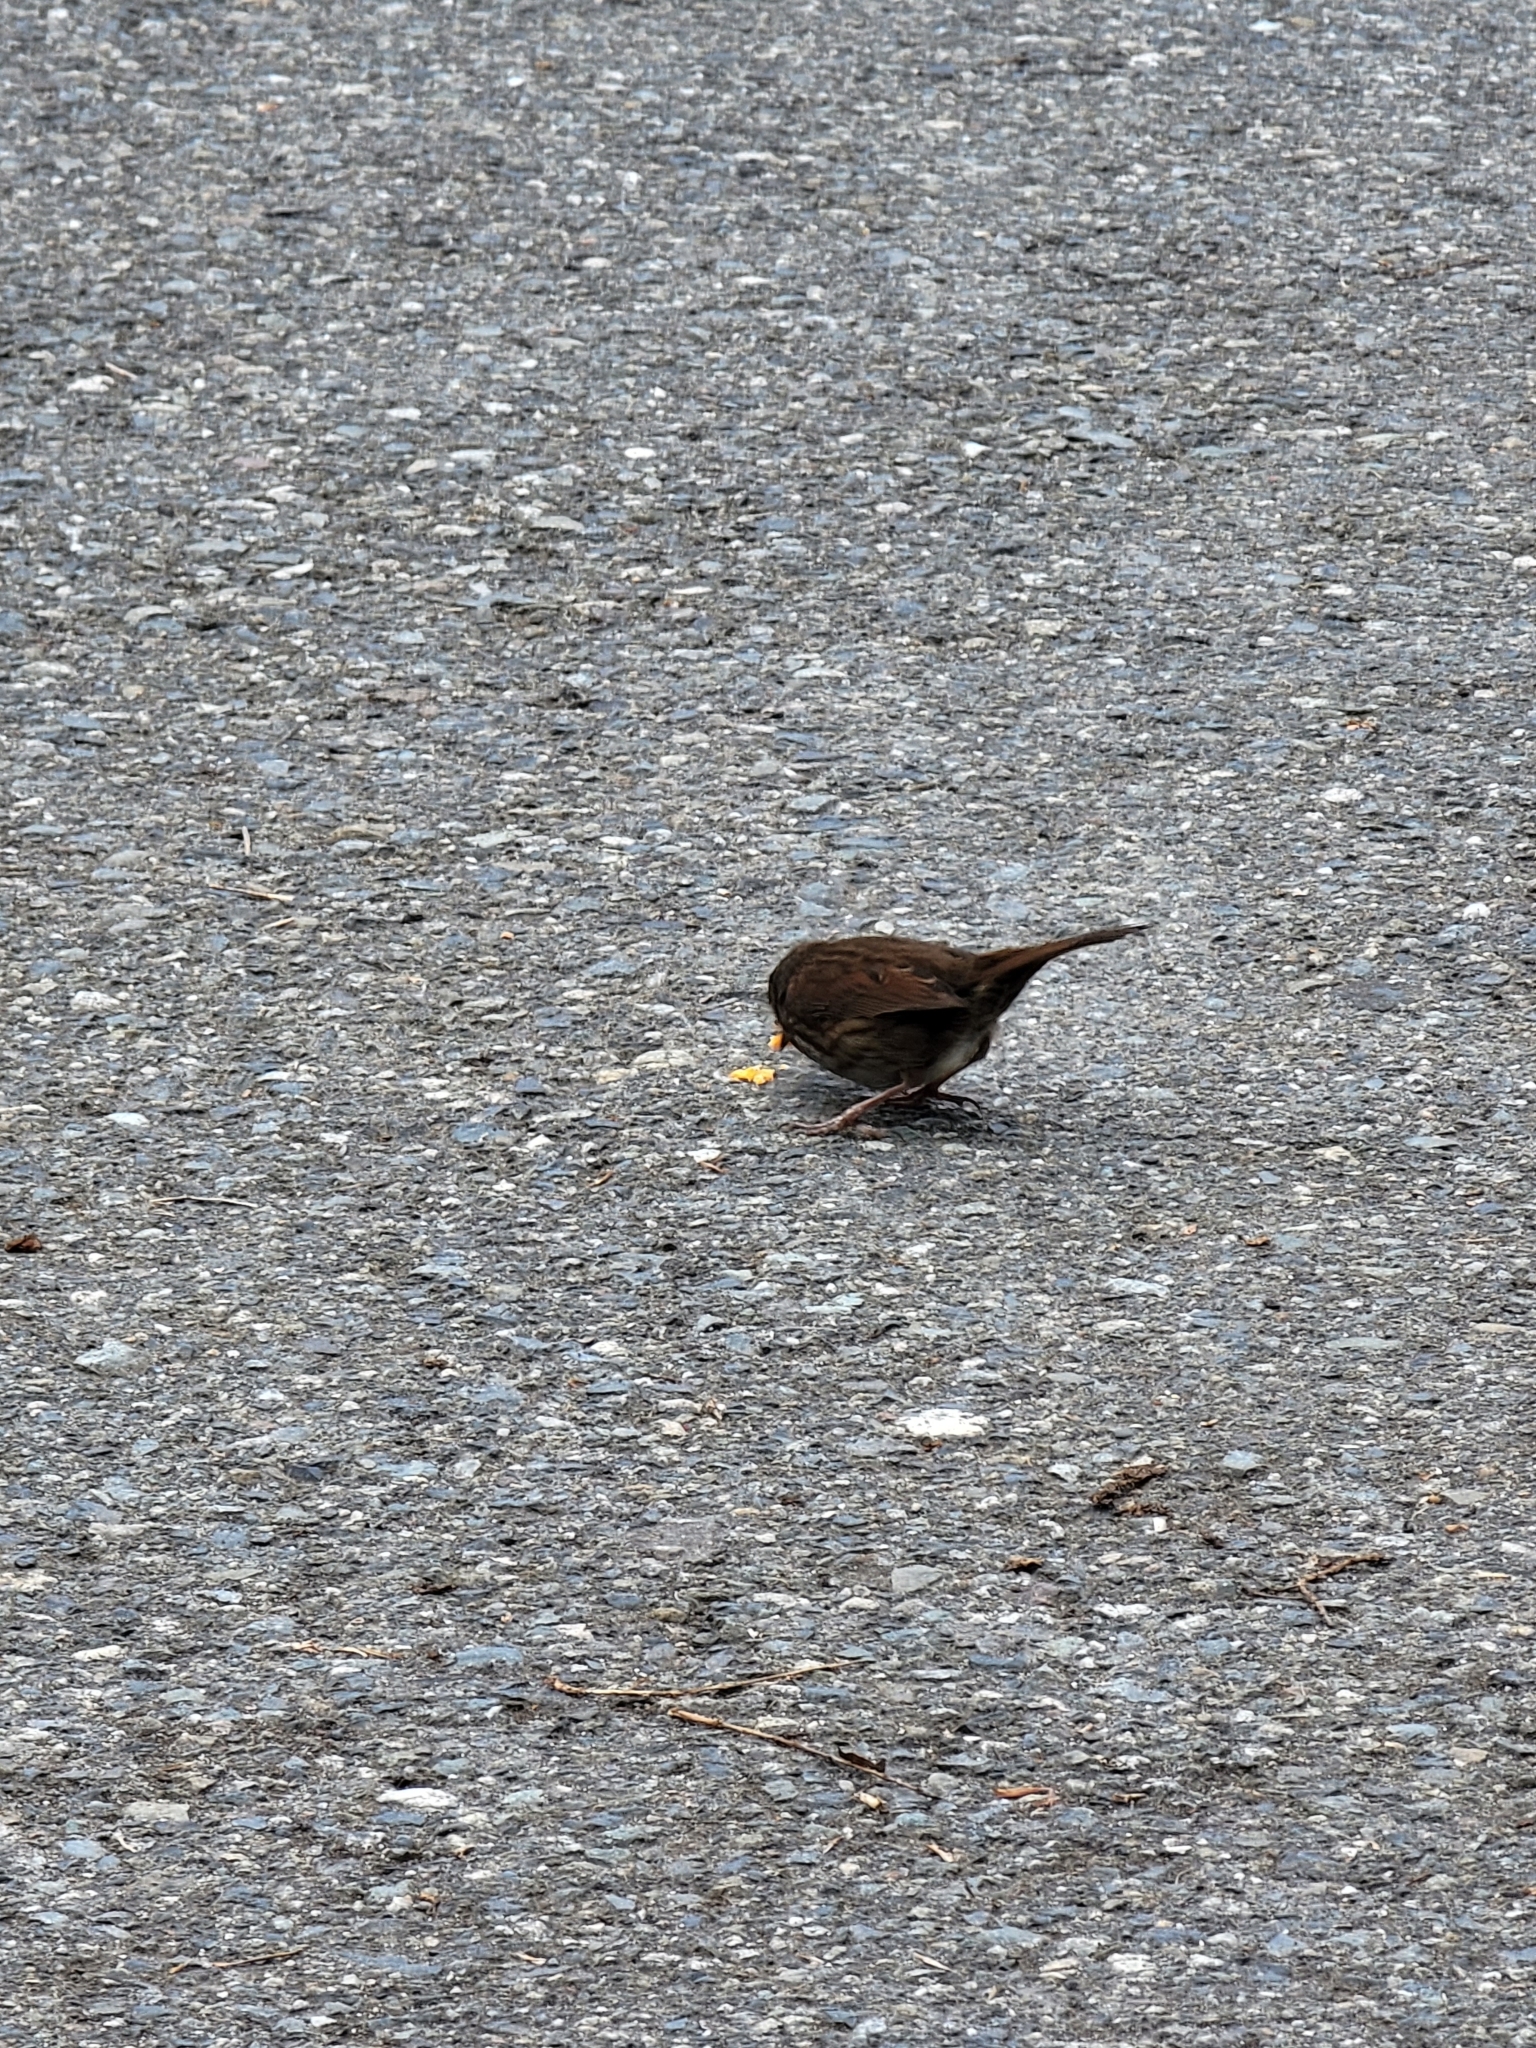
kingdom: Animalia
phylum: Chordata
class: Aves
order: Passeriformes
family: Passerellidae
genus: Melospiza
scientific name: Melospiza melodia
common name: Song sparrow
